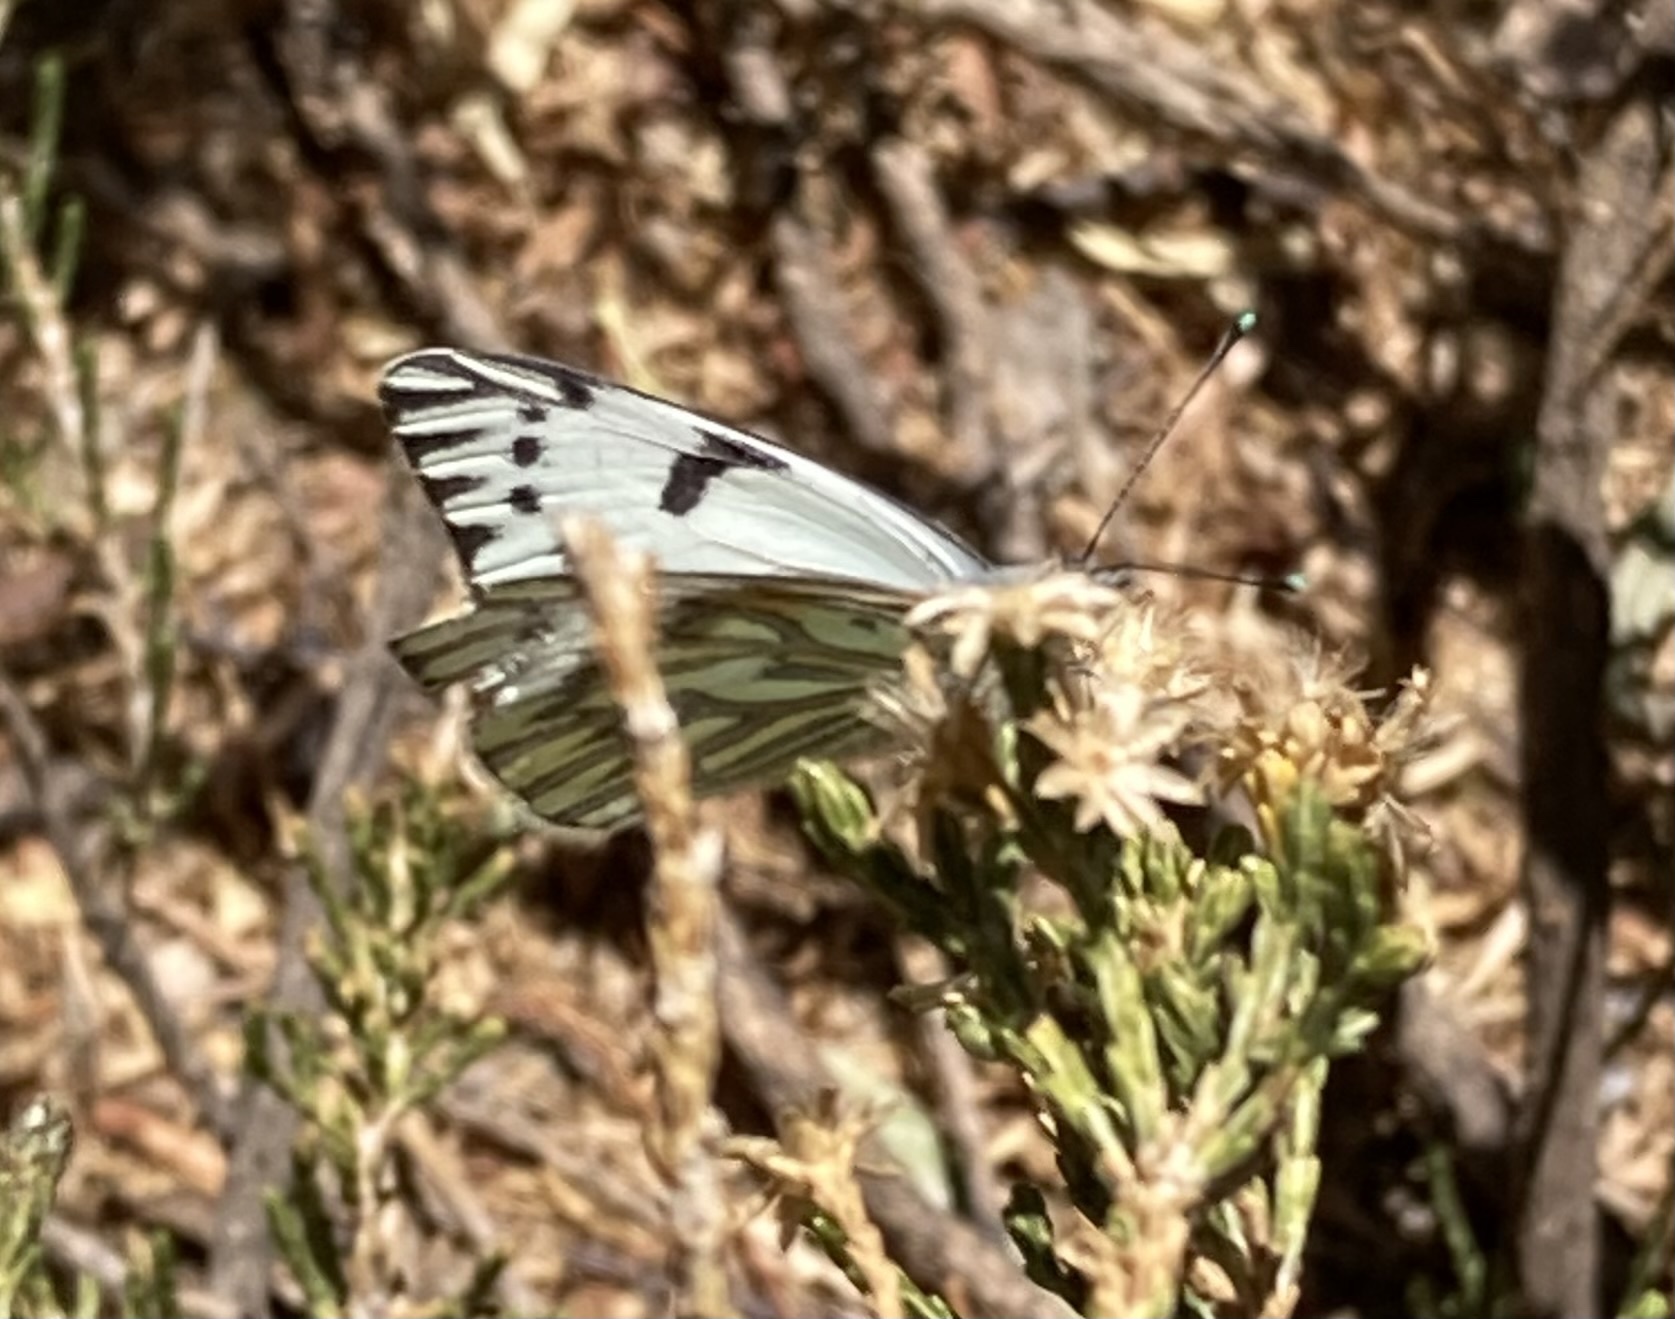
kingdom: Animalia
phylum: Arthropoda
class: Insecta
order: Lepidoptera
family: Pieridae
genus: Tatochila
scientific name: Tatochila autodice
